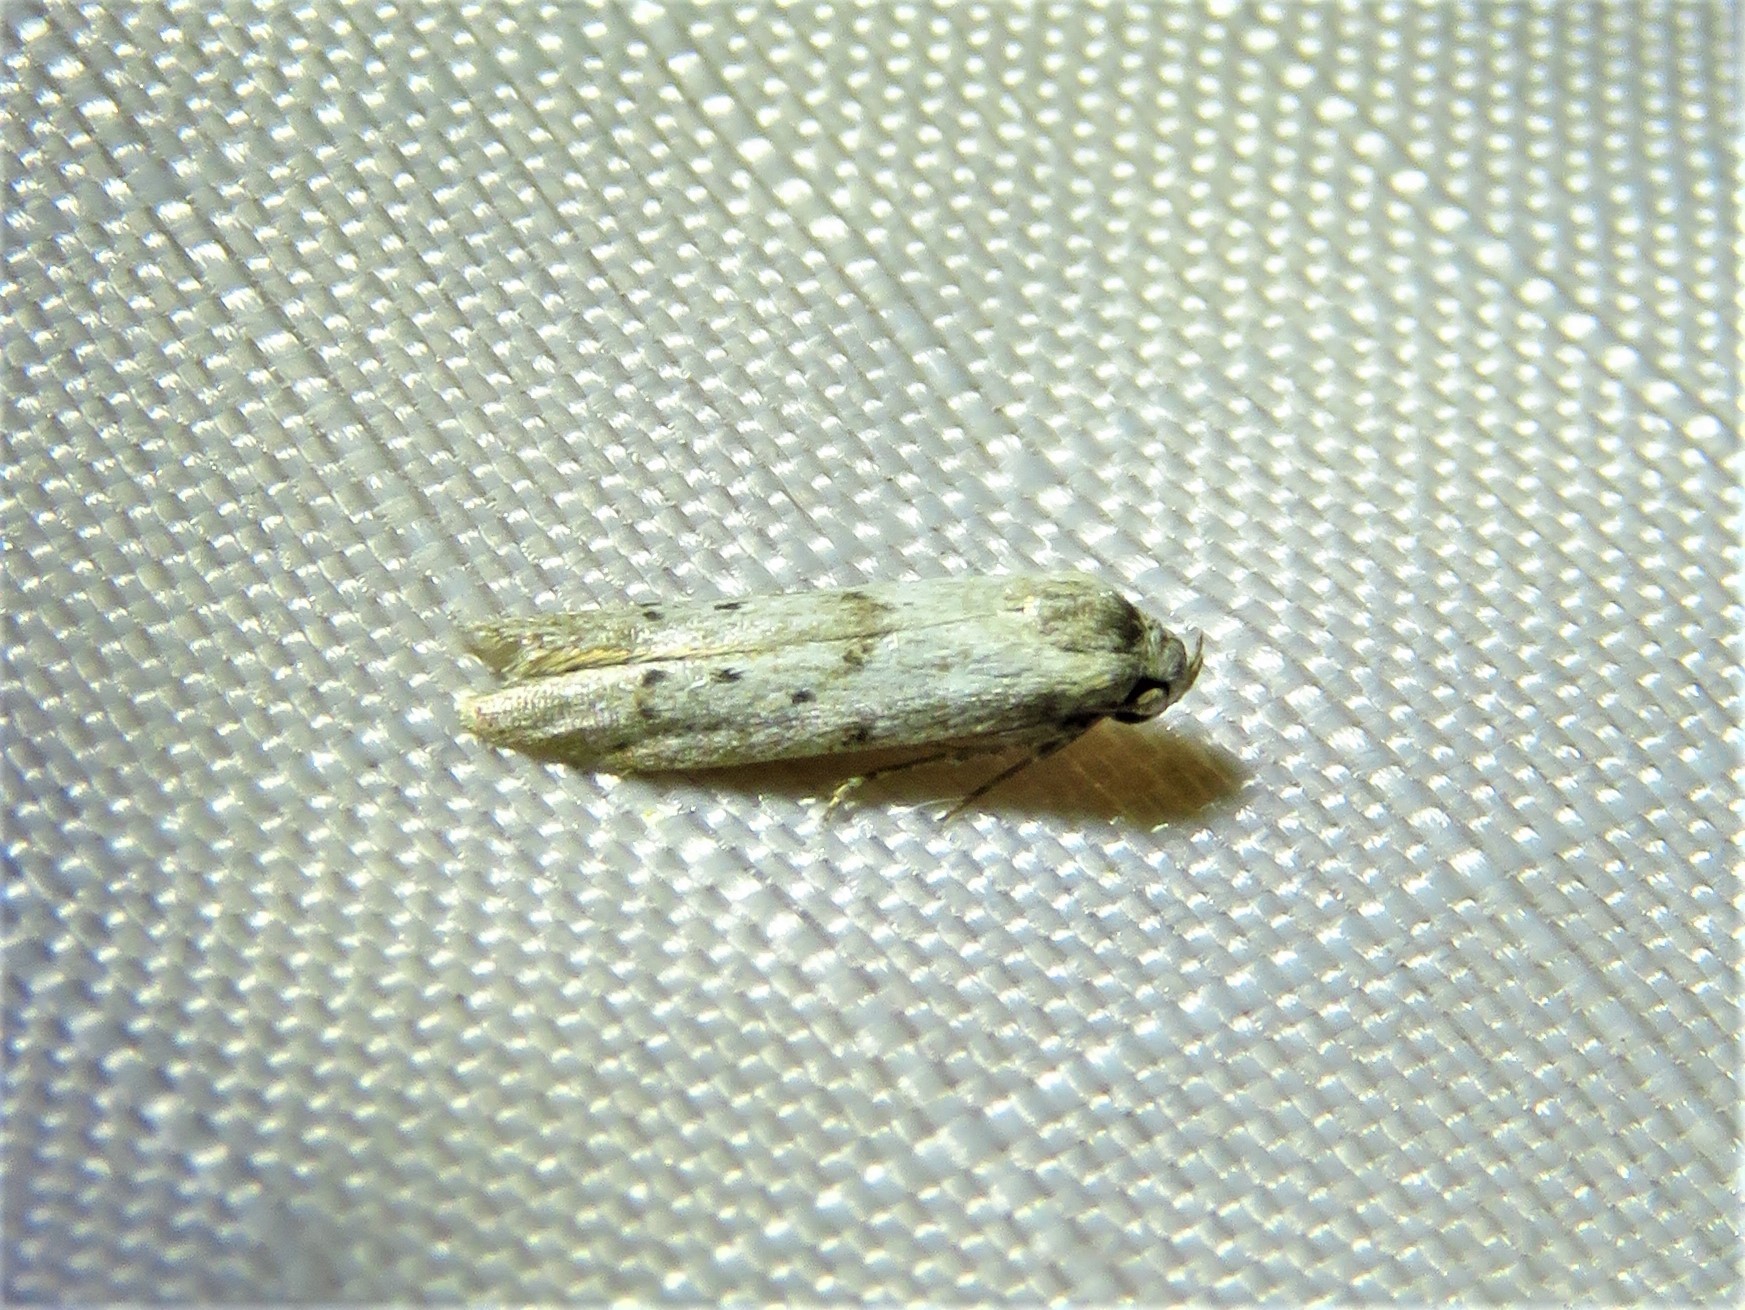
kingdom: Animalia
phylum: Arthropoda
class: Insecta
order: Lepidoptera
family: Blastobasidae
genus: Hypatopa
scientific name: Hypatopa punctiferella
